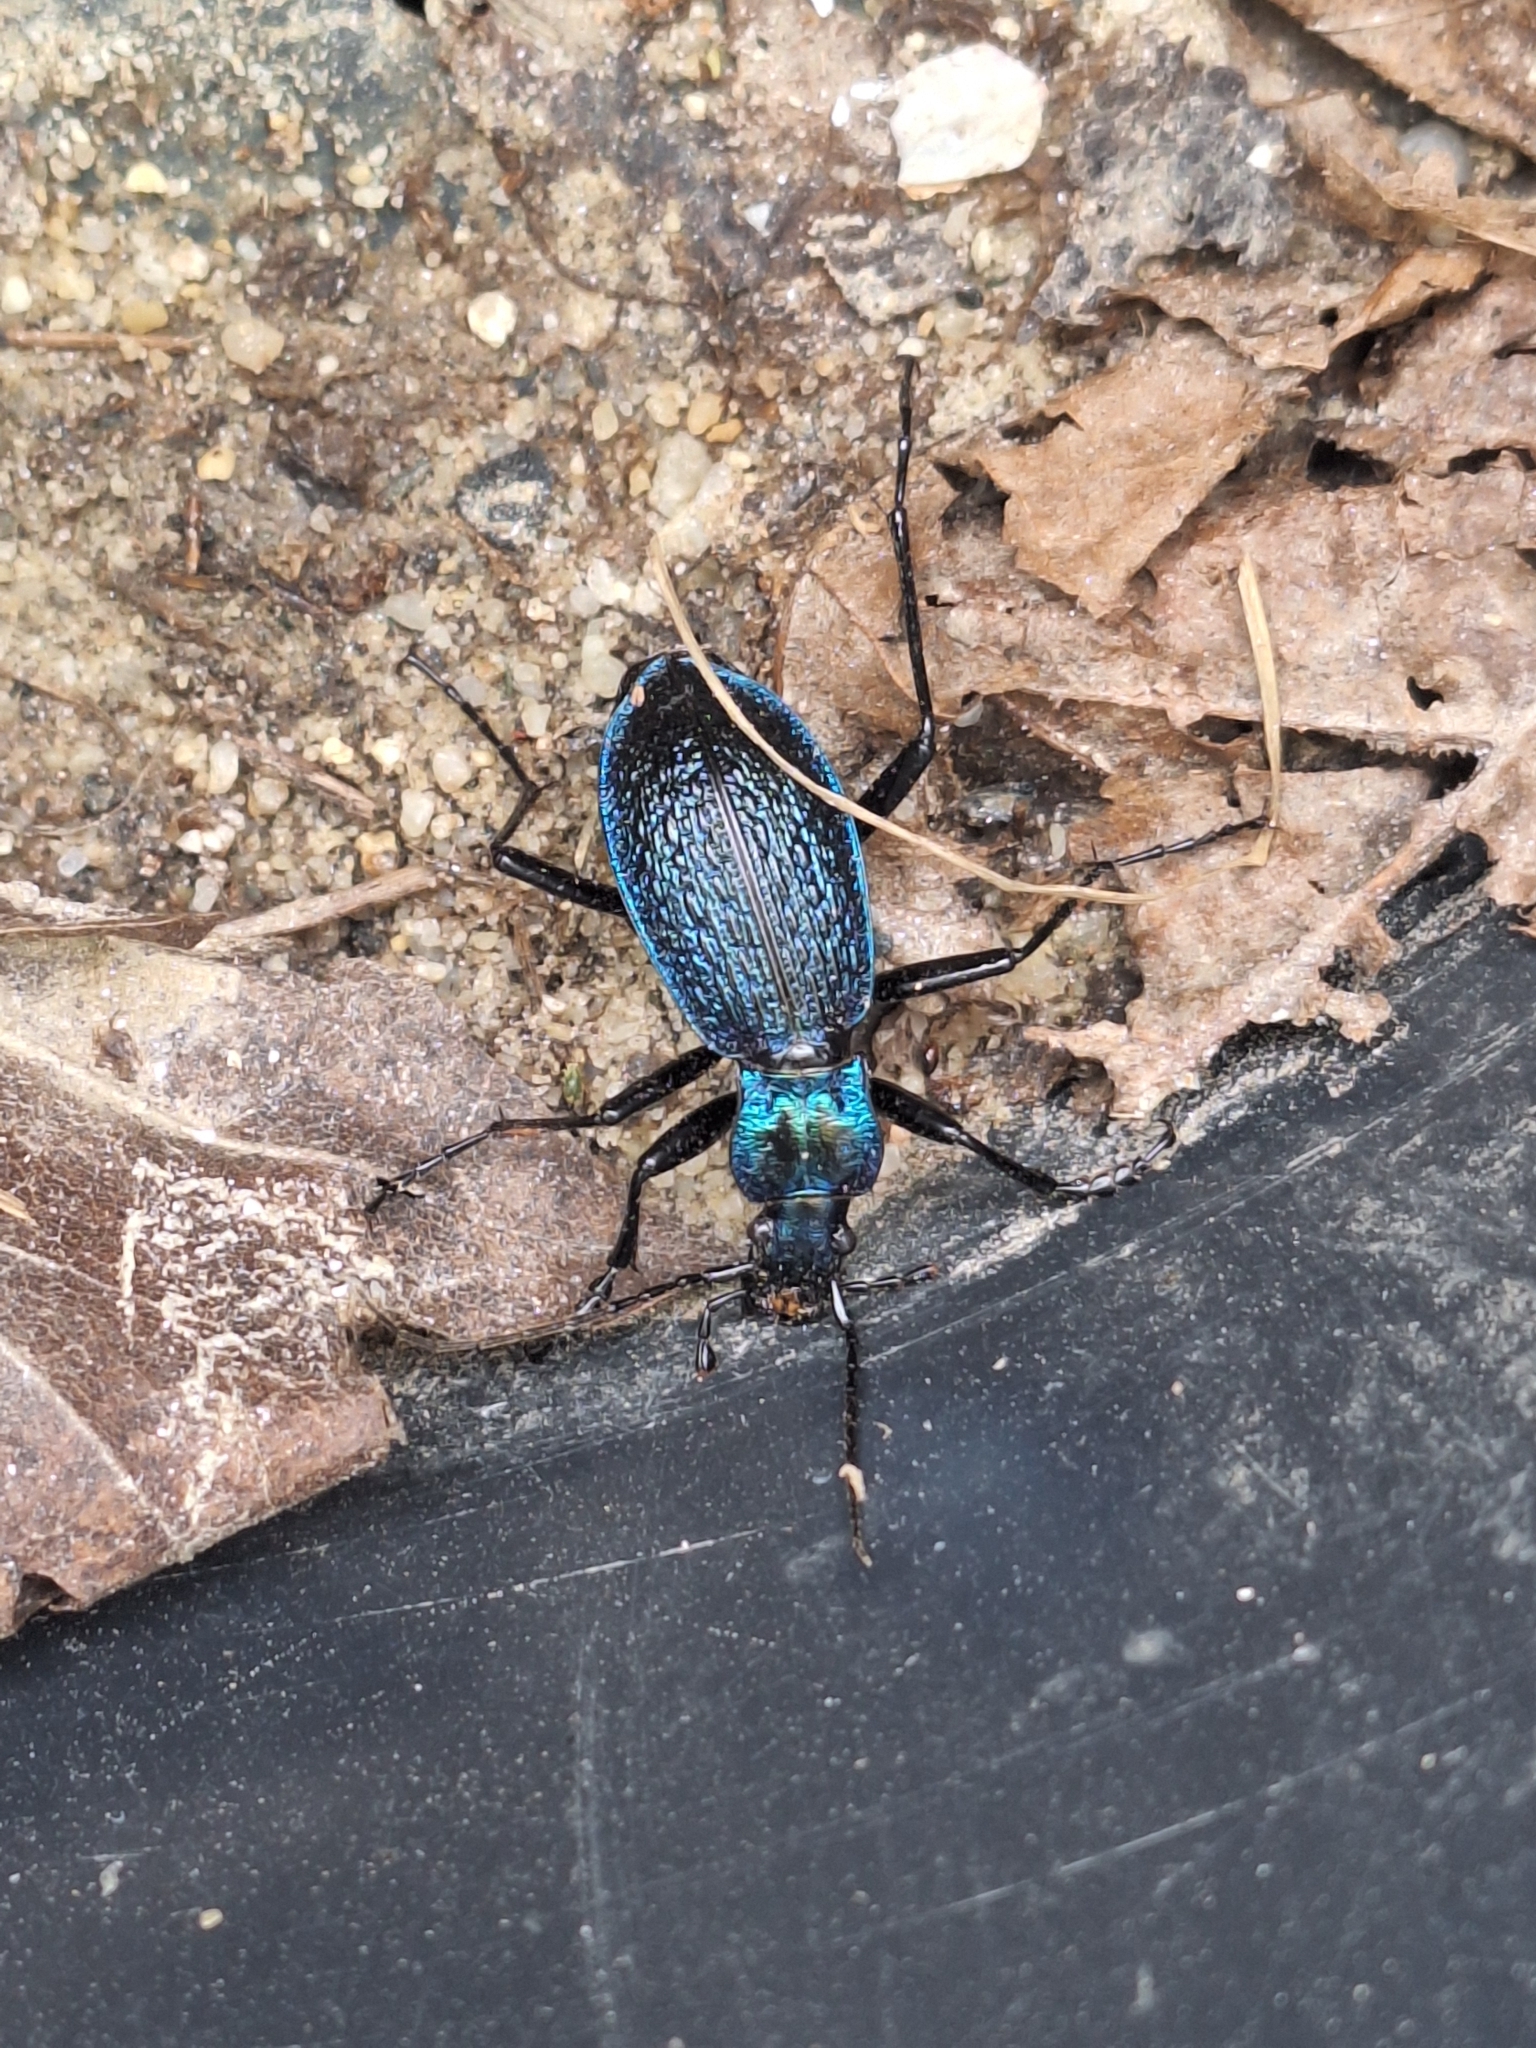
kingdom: Animalia
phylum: Arthropoda
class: Insecta
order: Coleoptera
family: Carabidae
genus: Carabus
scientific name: Carabus intricatus
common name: Blue ground beetle
